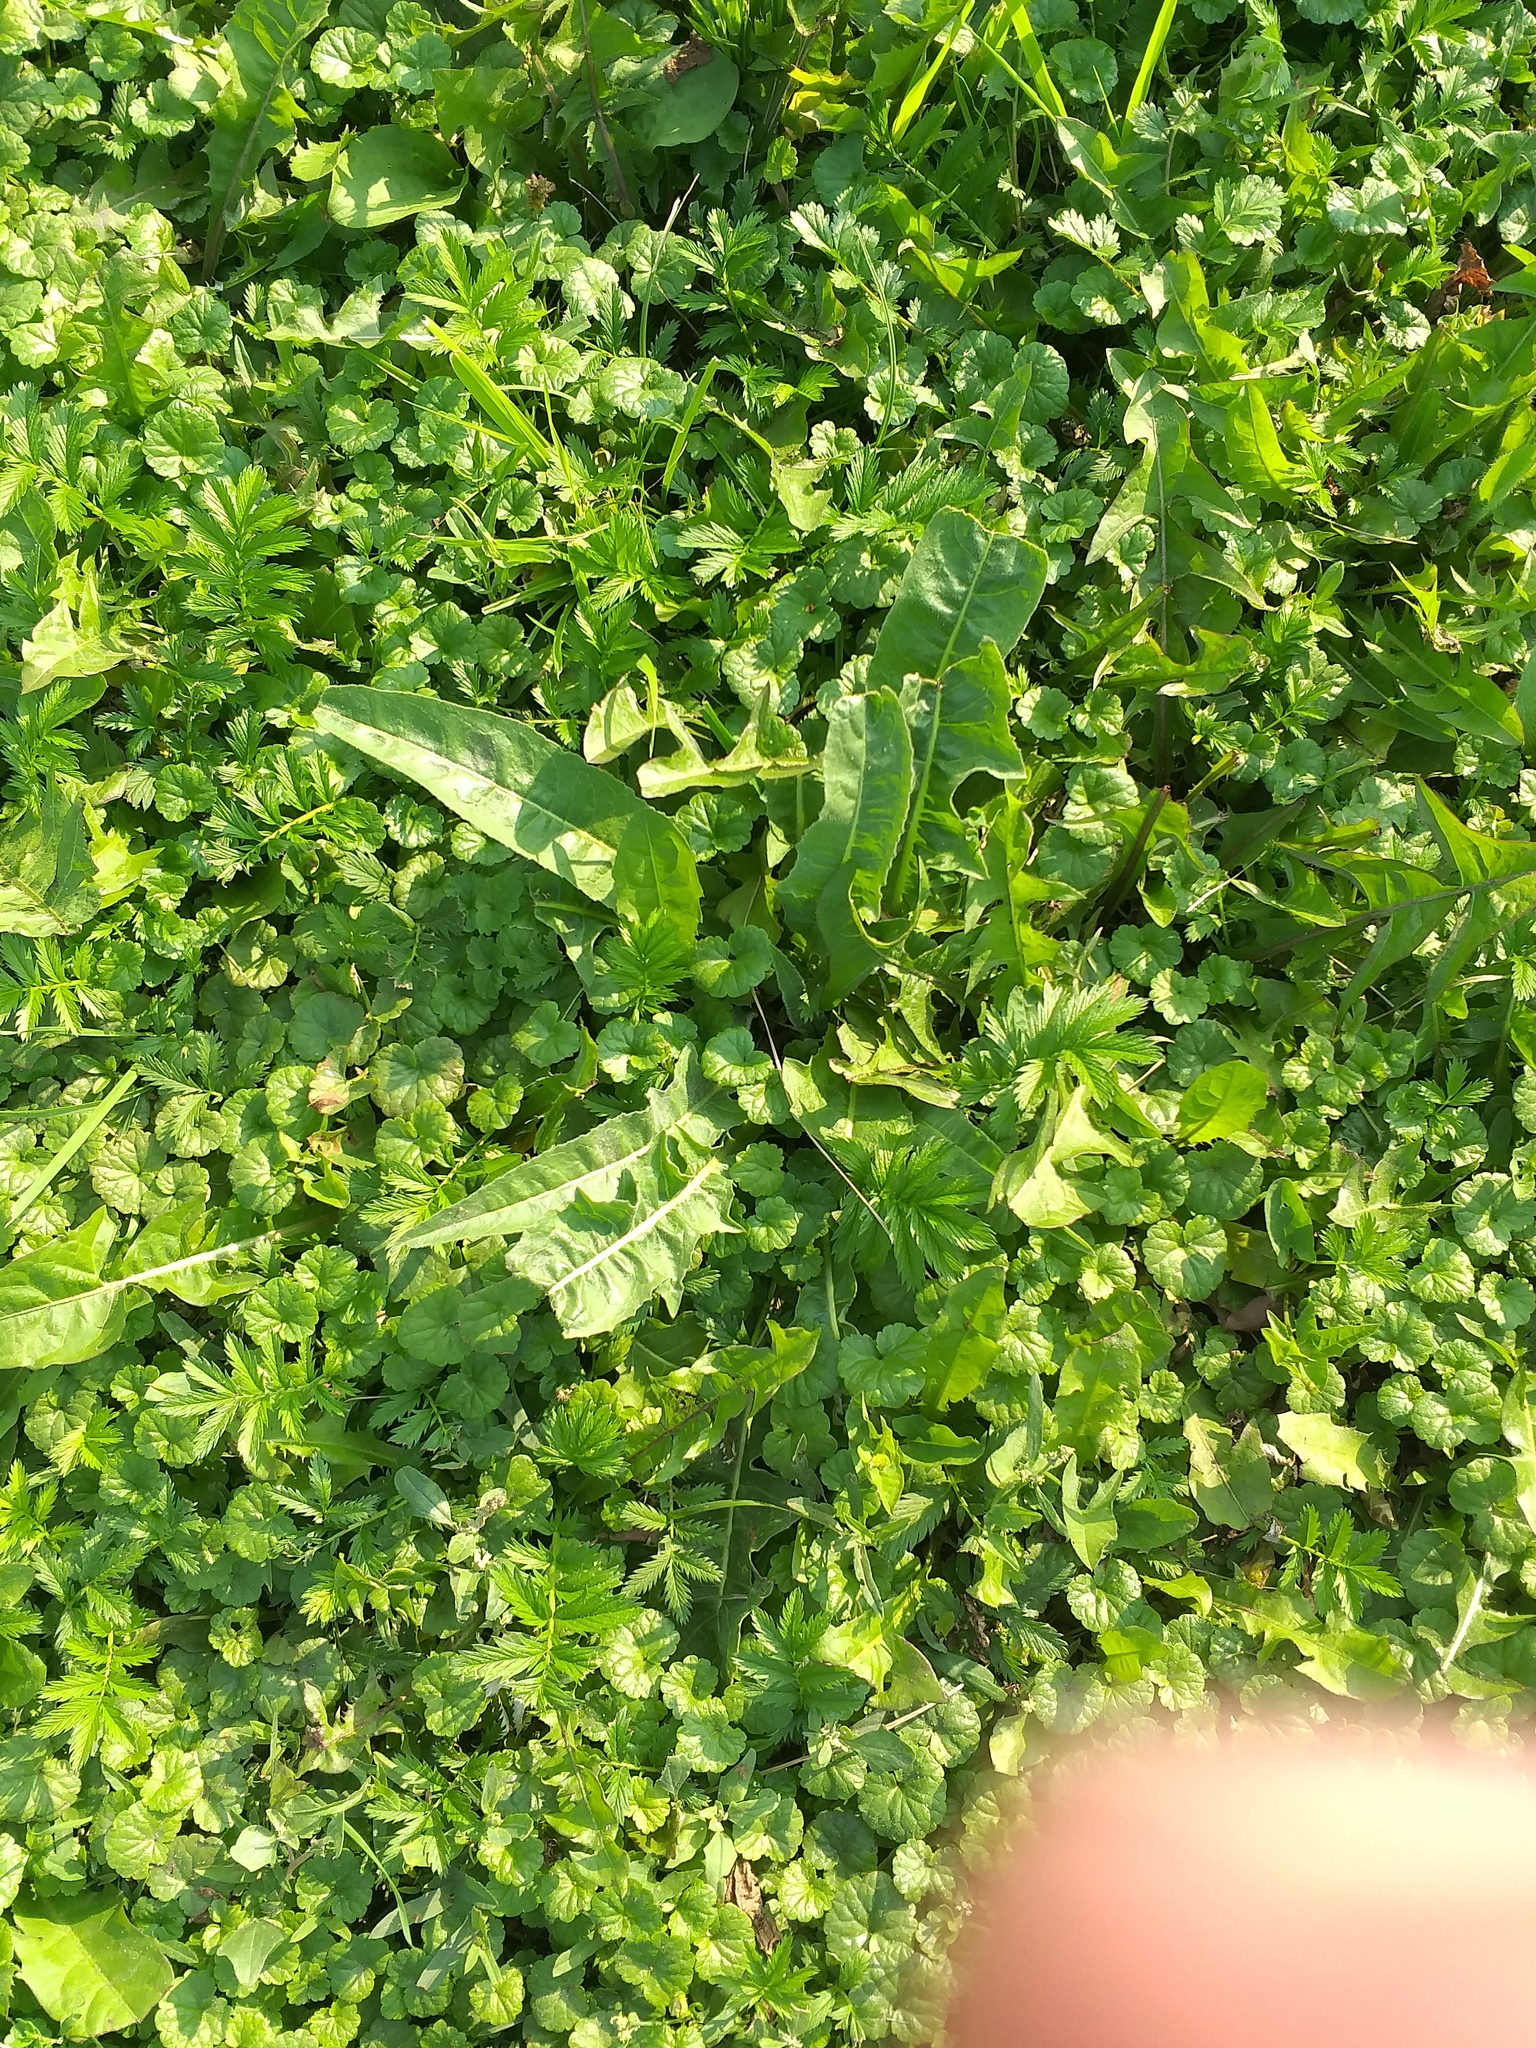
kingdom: Plantae
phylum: Tracheophyta
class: Magnoliopsida
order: Brassicales
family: Brassicaceae
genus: Bunias
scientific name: Bunias orientalis
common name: Warty-cabbage
